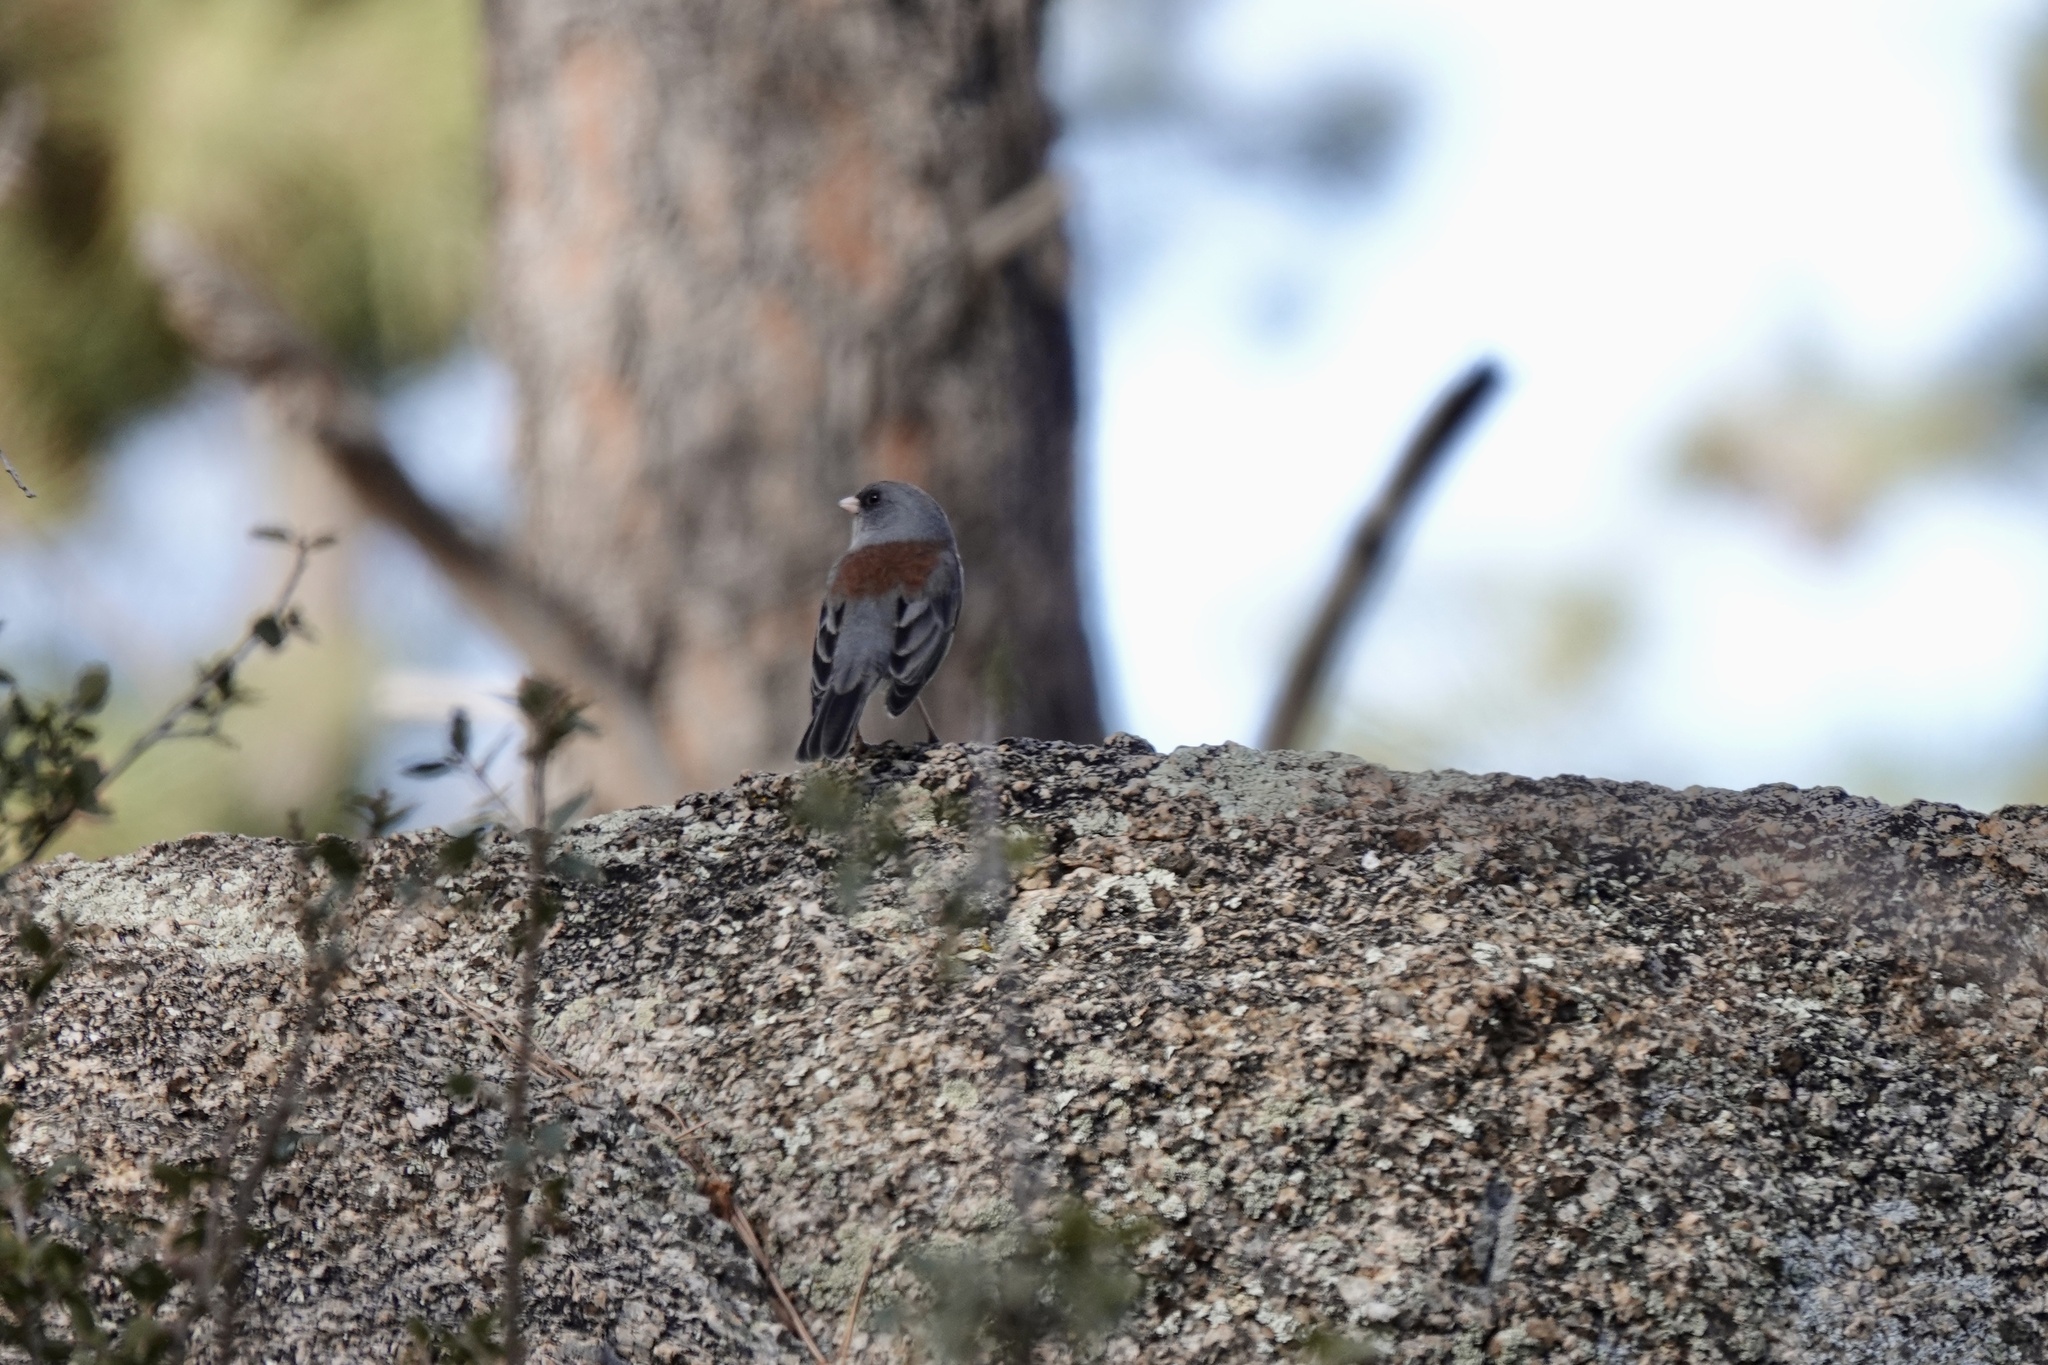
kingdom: Animalia
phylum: Chordata
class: Aves
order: Passeriformes
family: Passerellidae
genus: Junco
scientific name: Junco hyemalis
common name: Dark-eyed junco
